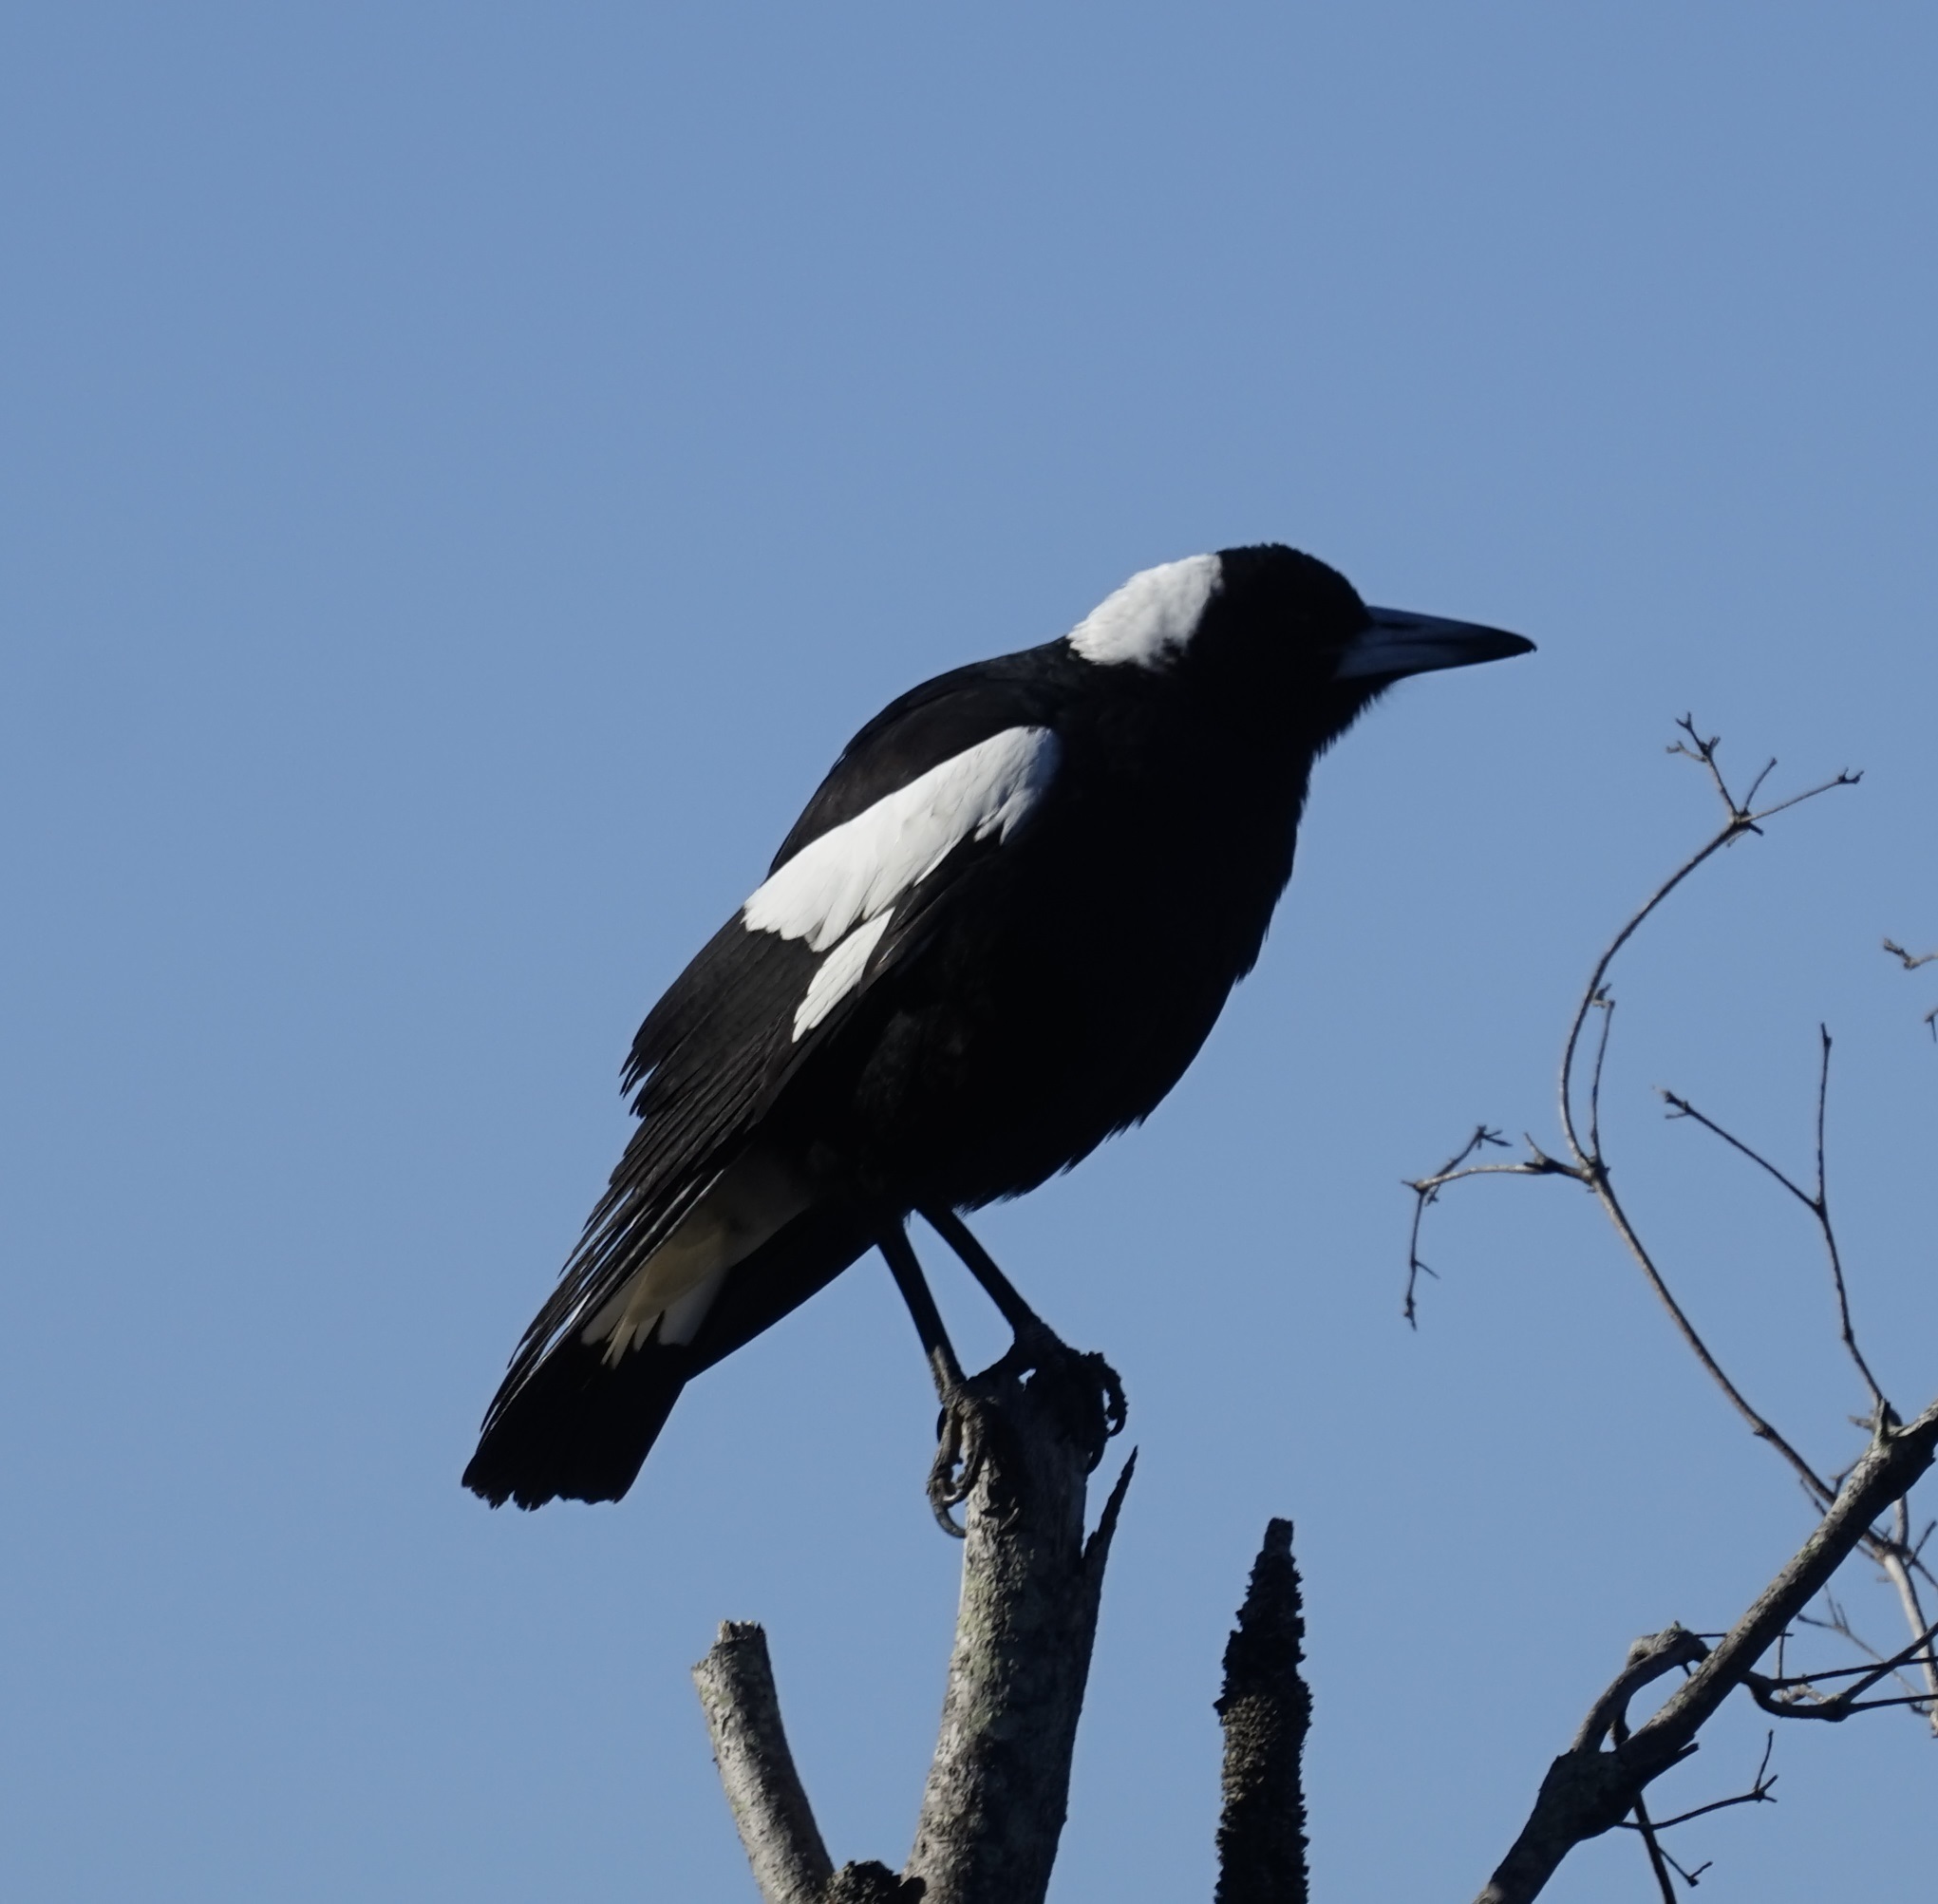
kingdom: Animalia
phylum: Chordata
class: Aves
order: Passeriformes
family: Cracticidae
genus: Gymnorhina
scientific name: Gymnorhina tibicen
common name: Australian magpie
